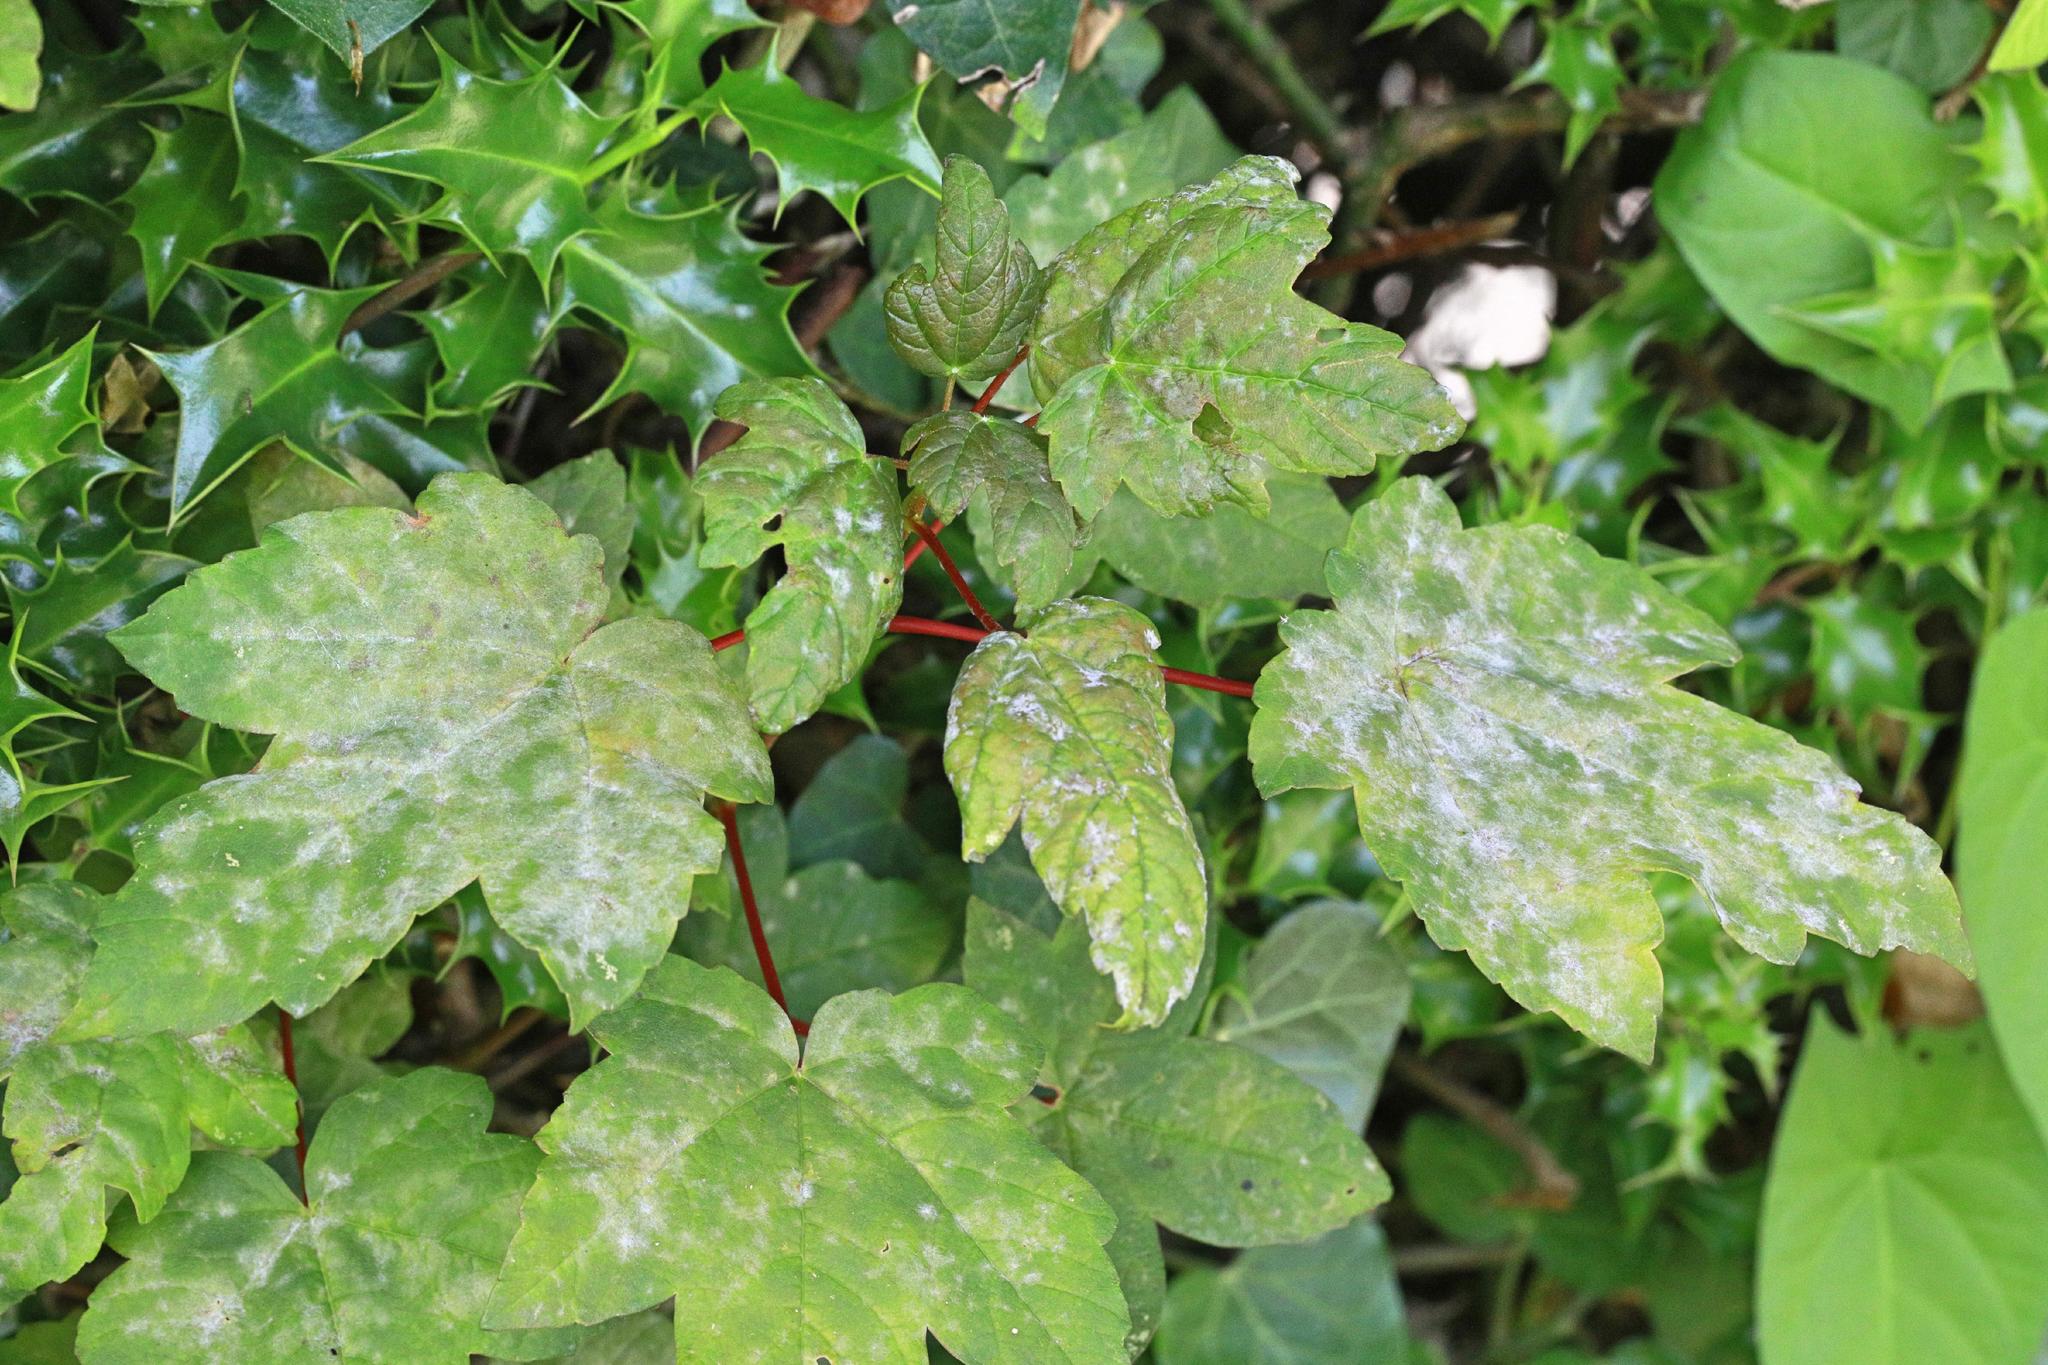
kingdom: Fungi
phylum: Ascomycota
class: Leotiomycetes
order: Helotiales
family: Erysiphaceae
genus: Sawadaea
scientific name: Sawadaea bicornis
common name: Maple mildew
